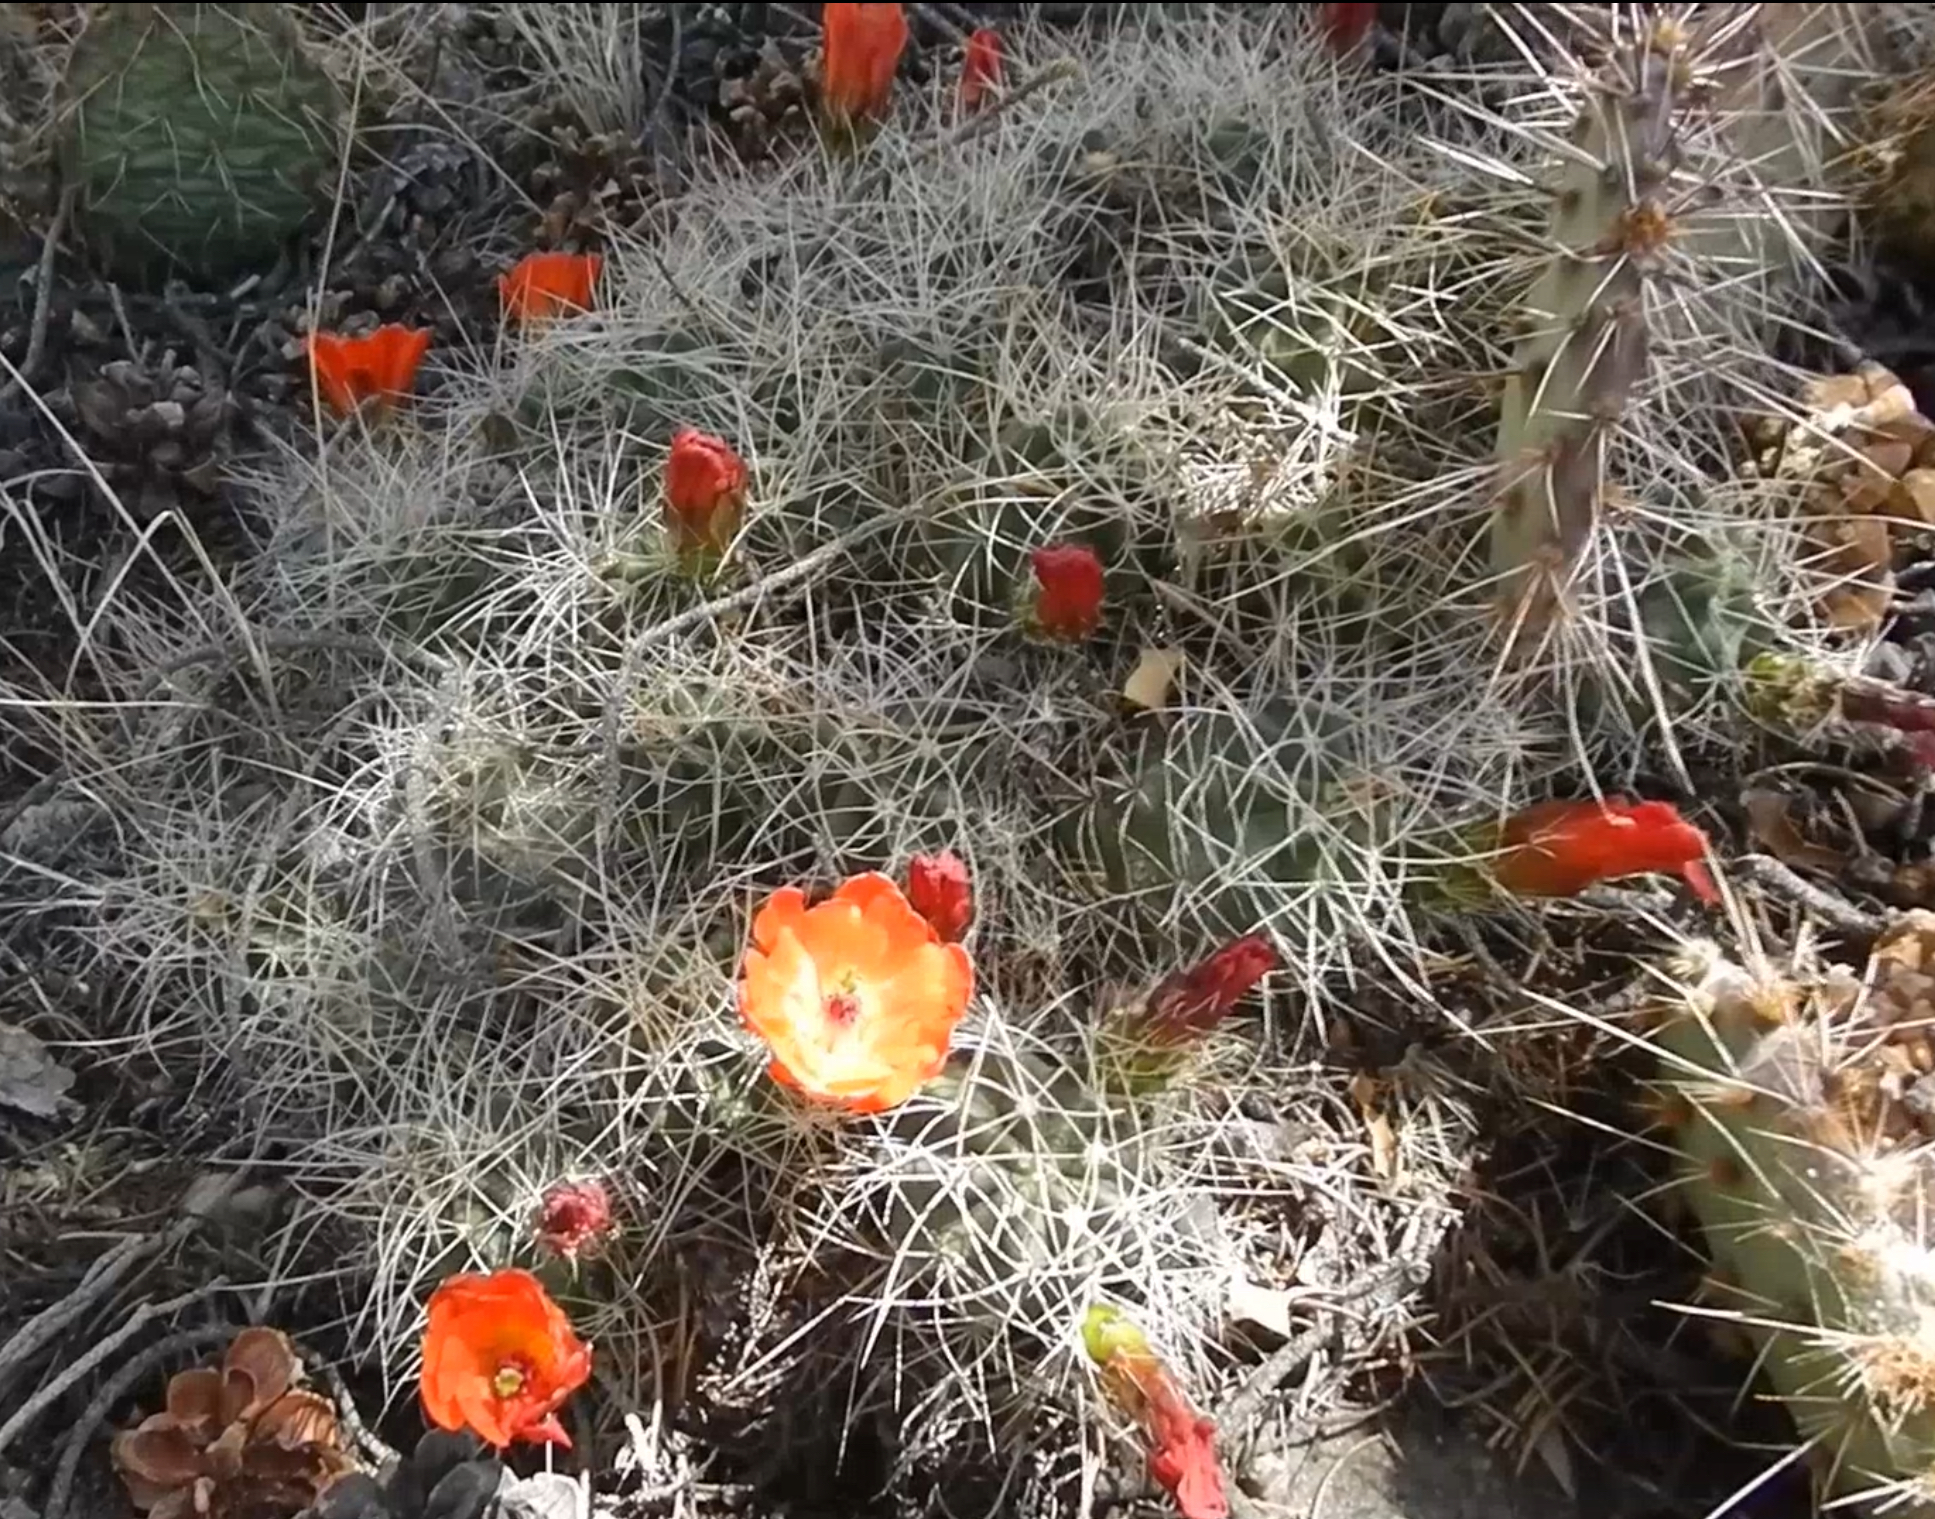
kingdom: Plantae
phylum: Tracheophyta
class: Magnoliopsida
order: Caryophyllales
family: Cactaceae
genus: Echinocereus
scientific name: Echinocereus triglochidiatus
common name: Claretcup hedgehog
